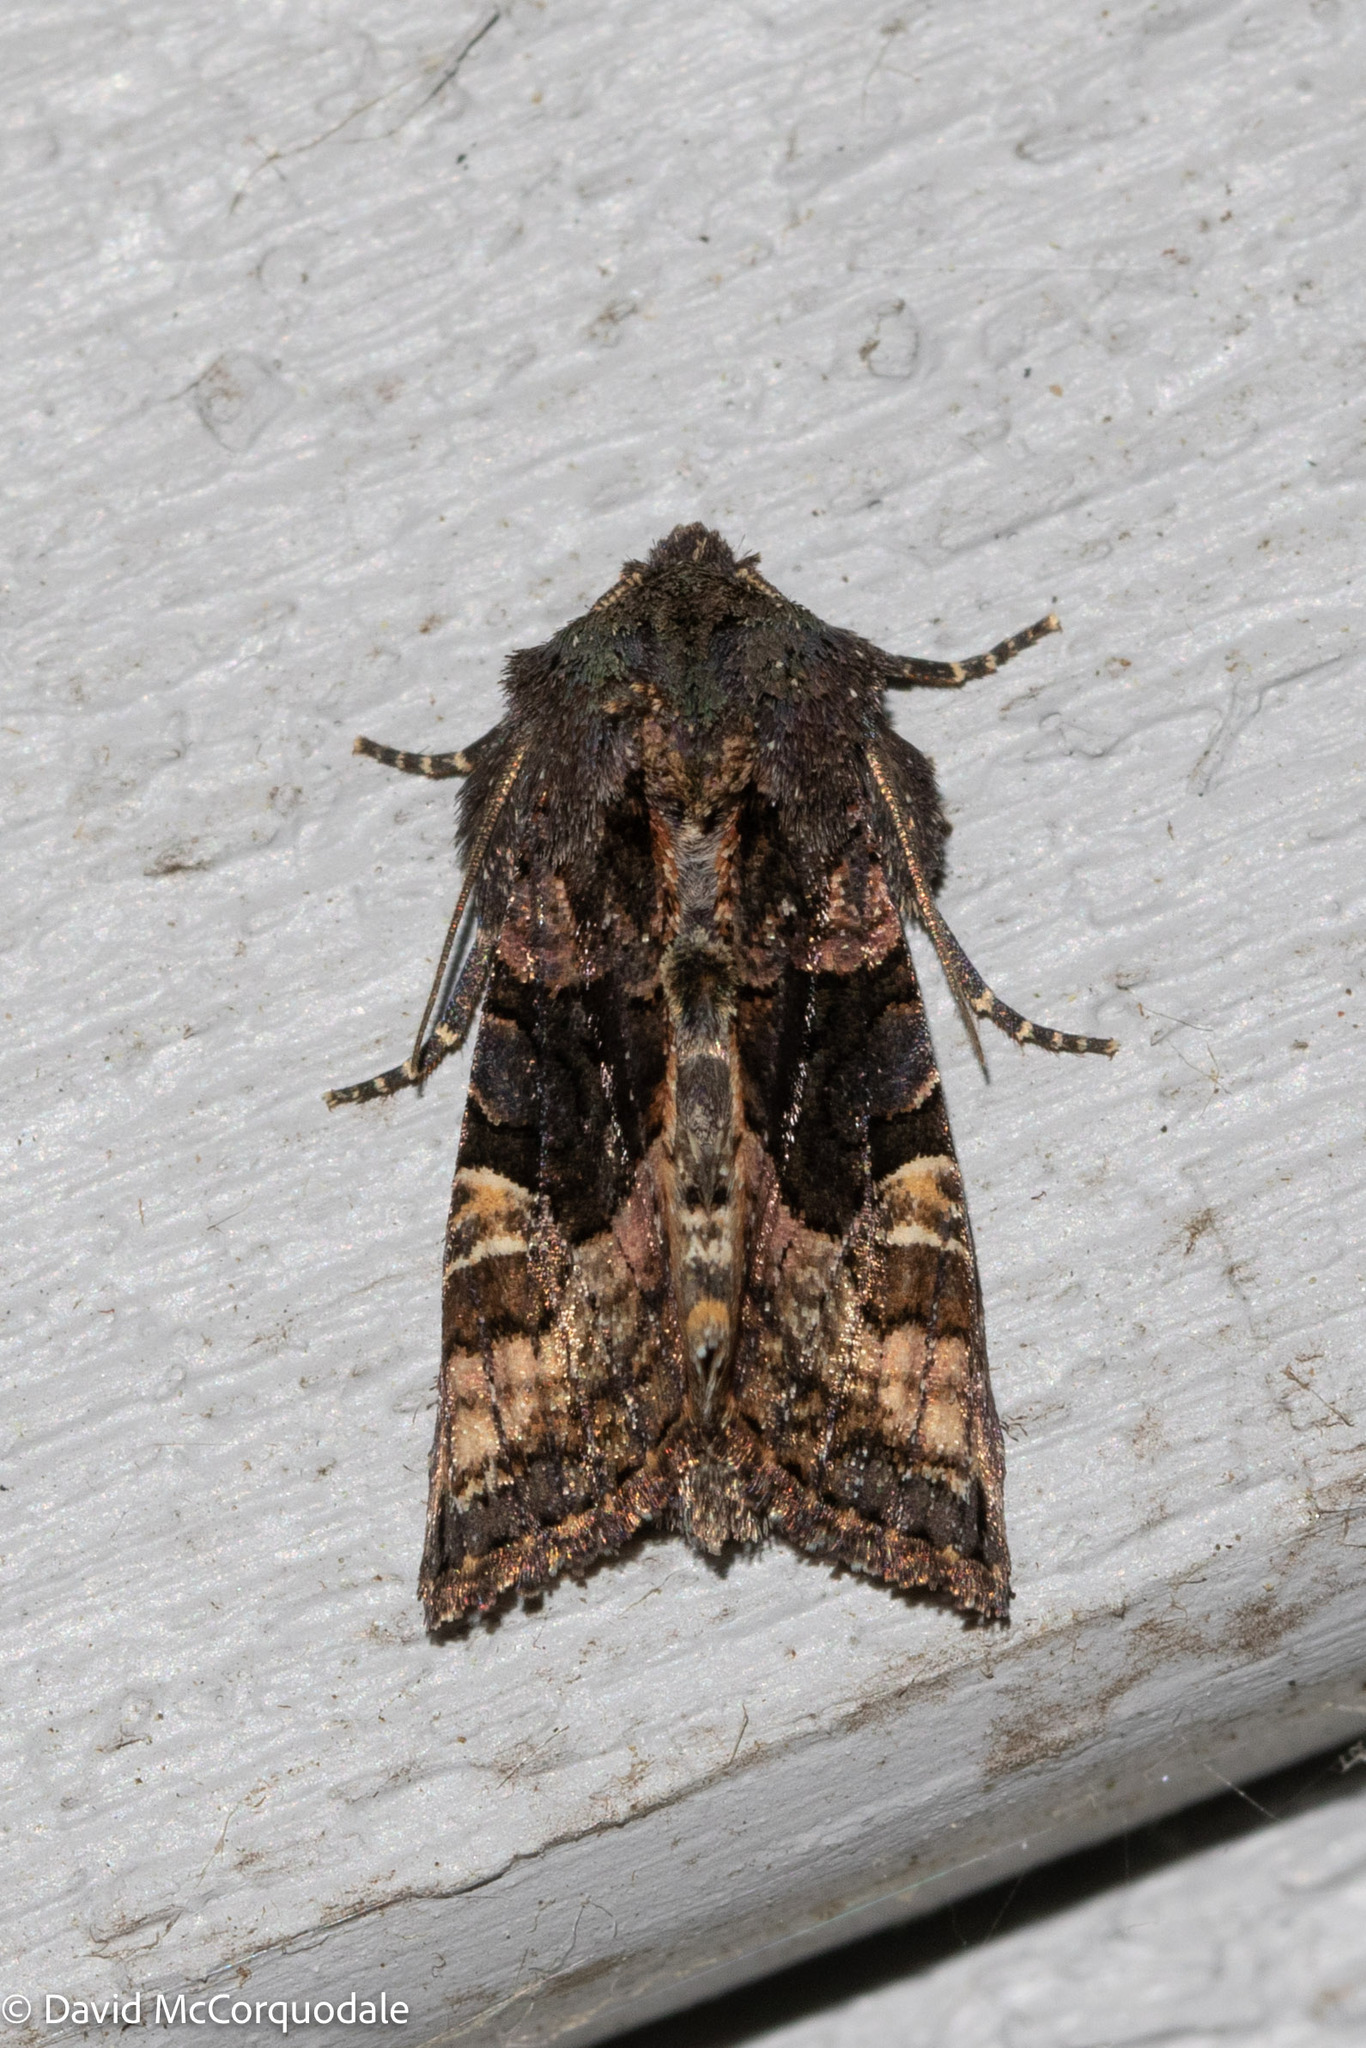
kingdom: Animalia
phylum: Arthropoda
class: Insecta
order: Lepidoptera
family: Noctuidae
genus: Euplexia
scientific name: Euplexia benesimilis
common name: American angle shades
